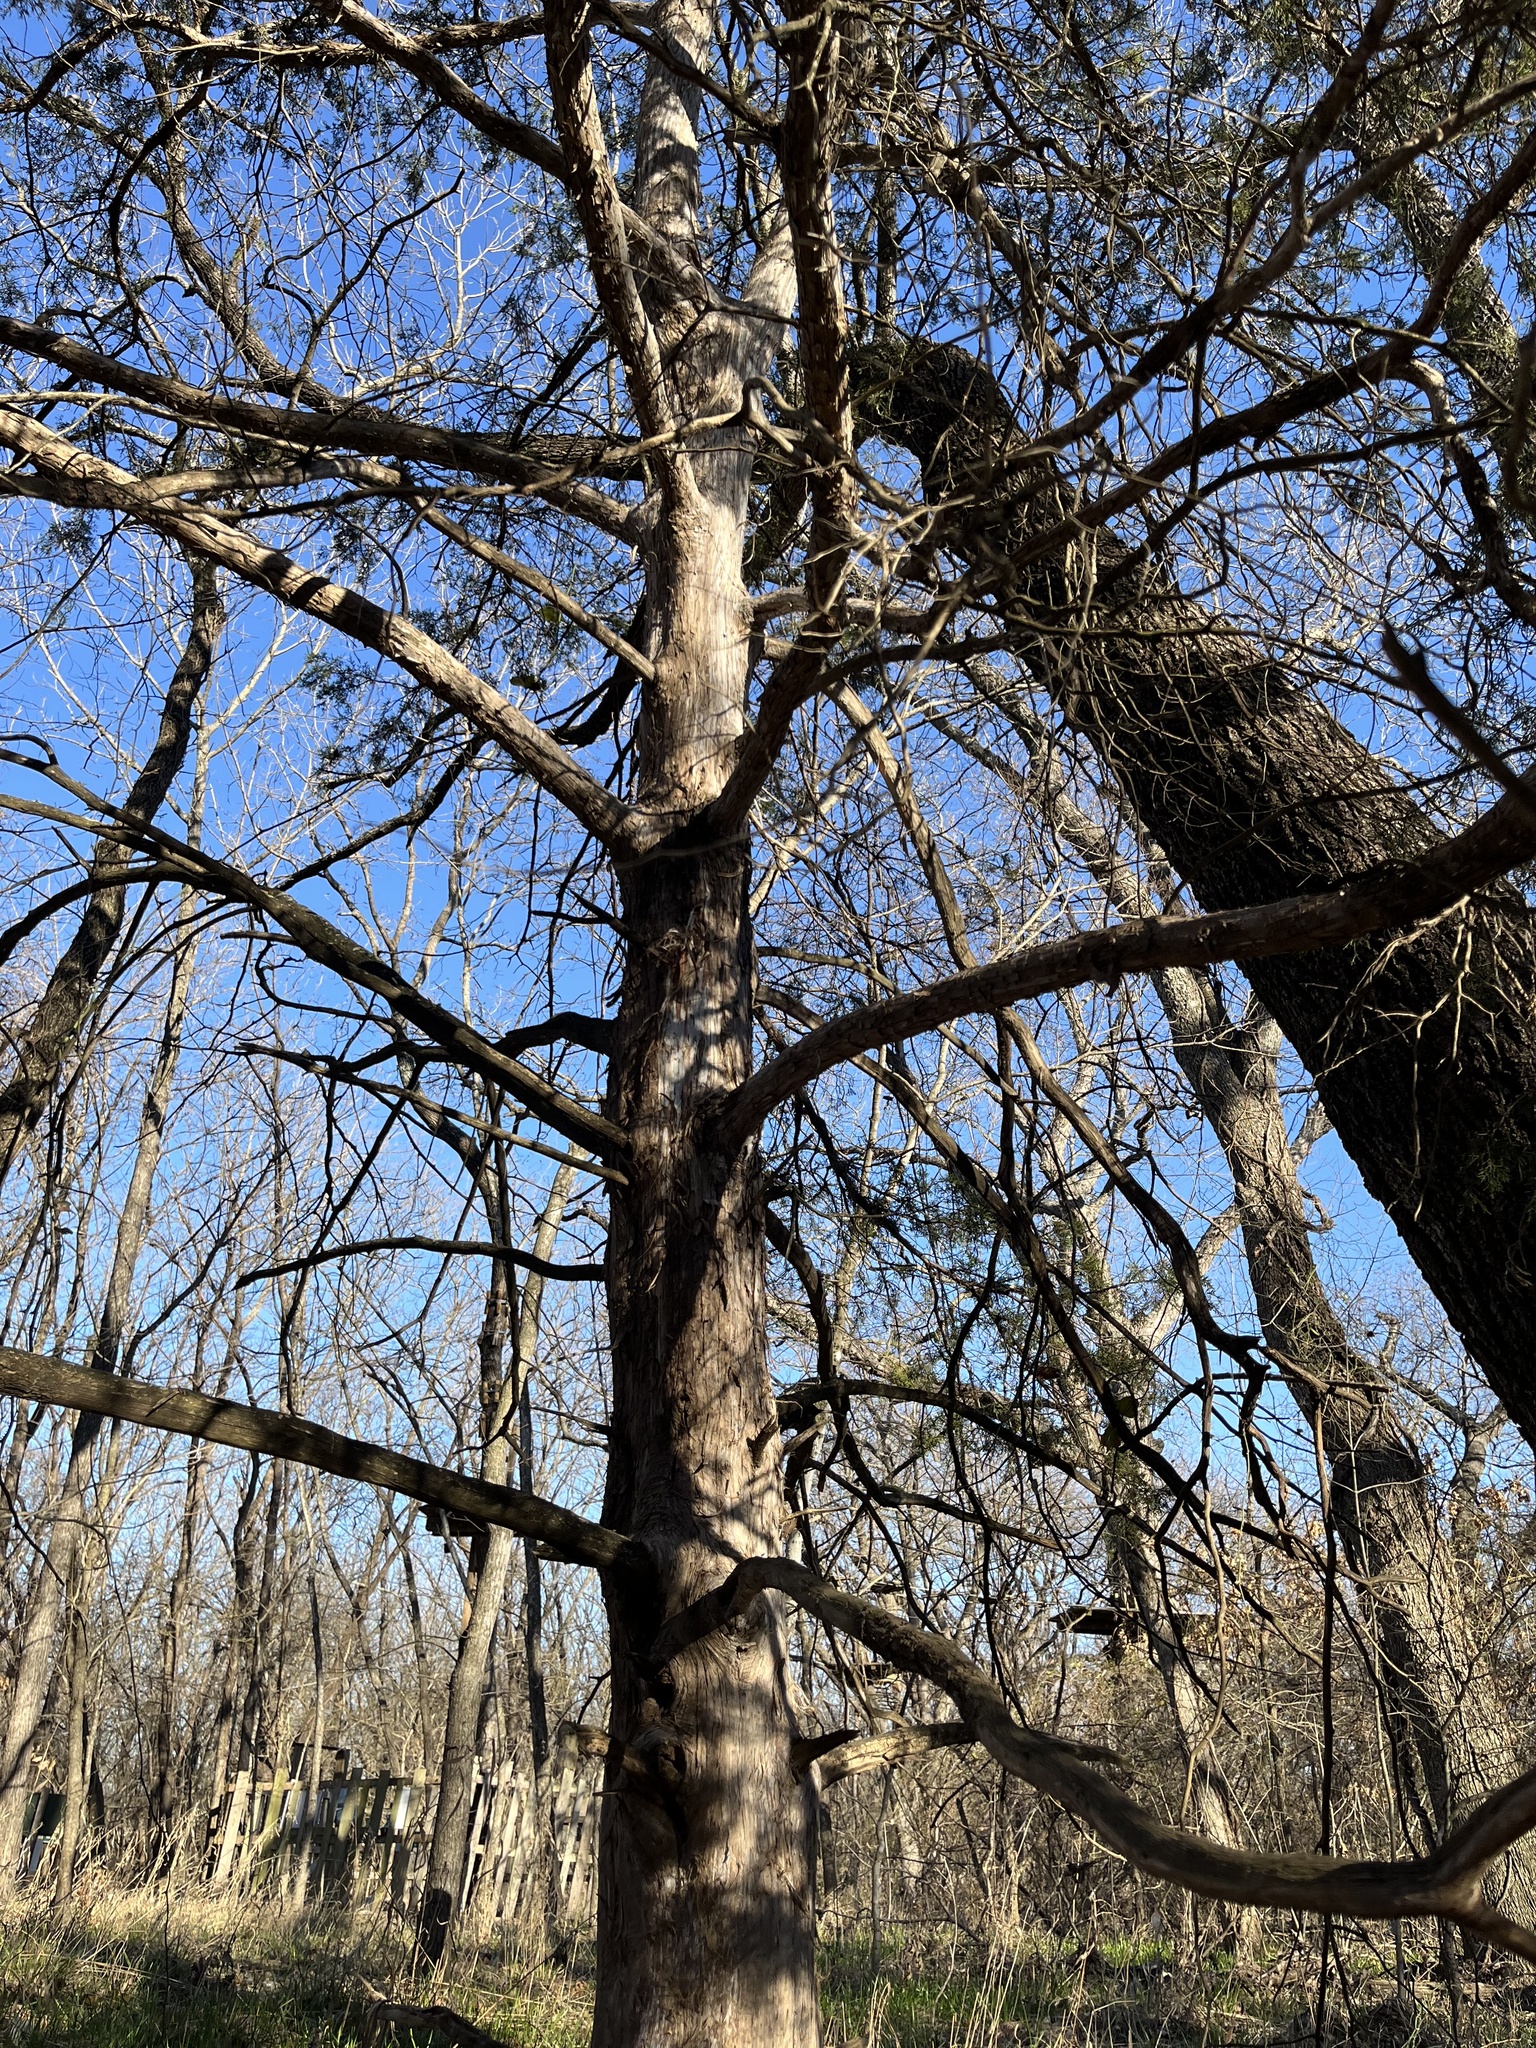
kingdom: Plantae
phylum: Tracheophyta
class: Pinopsida
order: Pinales
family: Cupressaceae
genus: Juniperus
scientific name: Juniperus virginiana
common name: Red juniper
